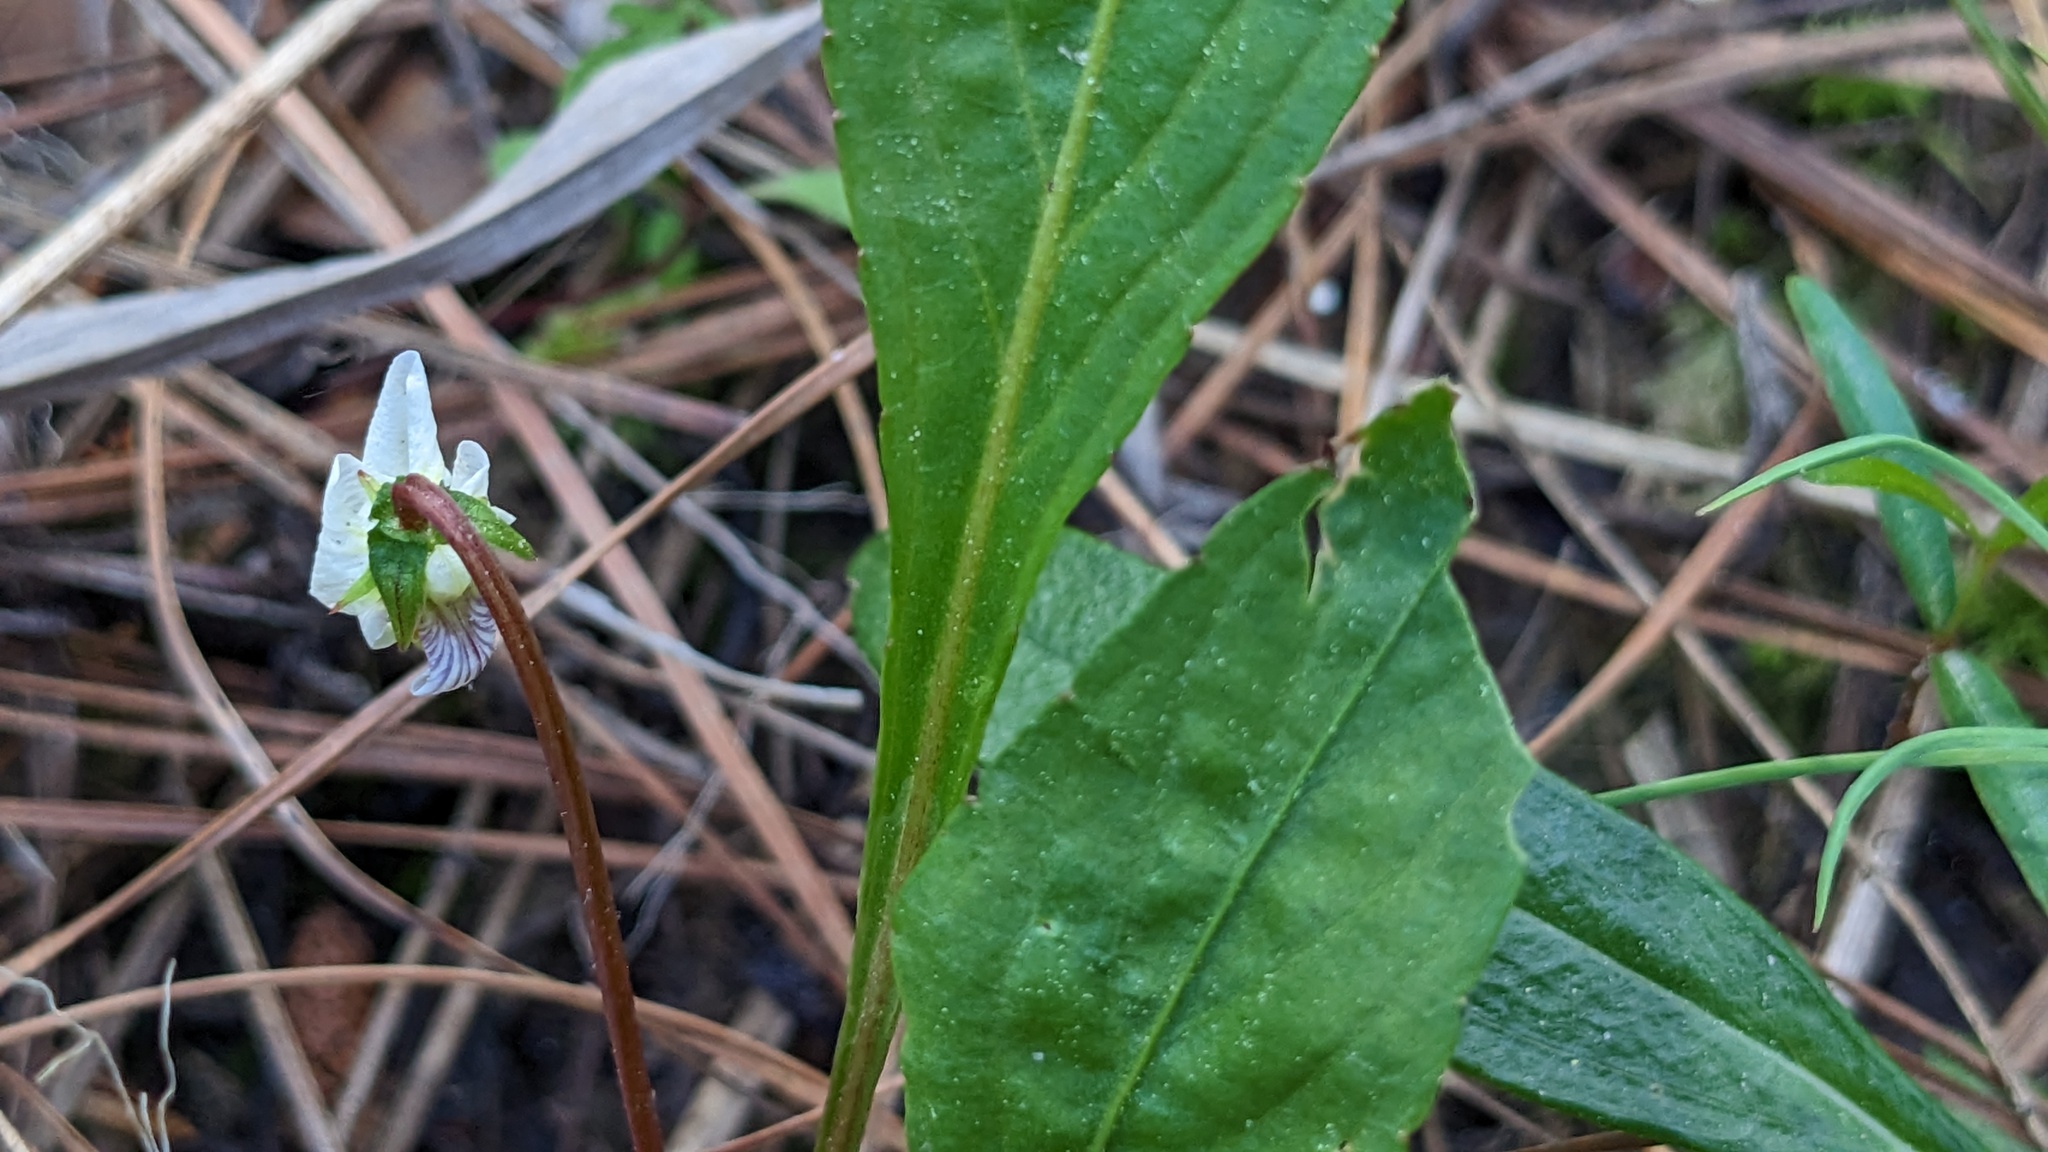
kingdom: Plantae
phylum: Tracheophyta
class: Magnoliopsida
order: Malpighiales
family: Violaceae
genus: Viola
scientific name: Viola lanceolata
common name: Bog white violet
